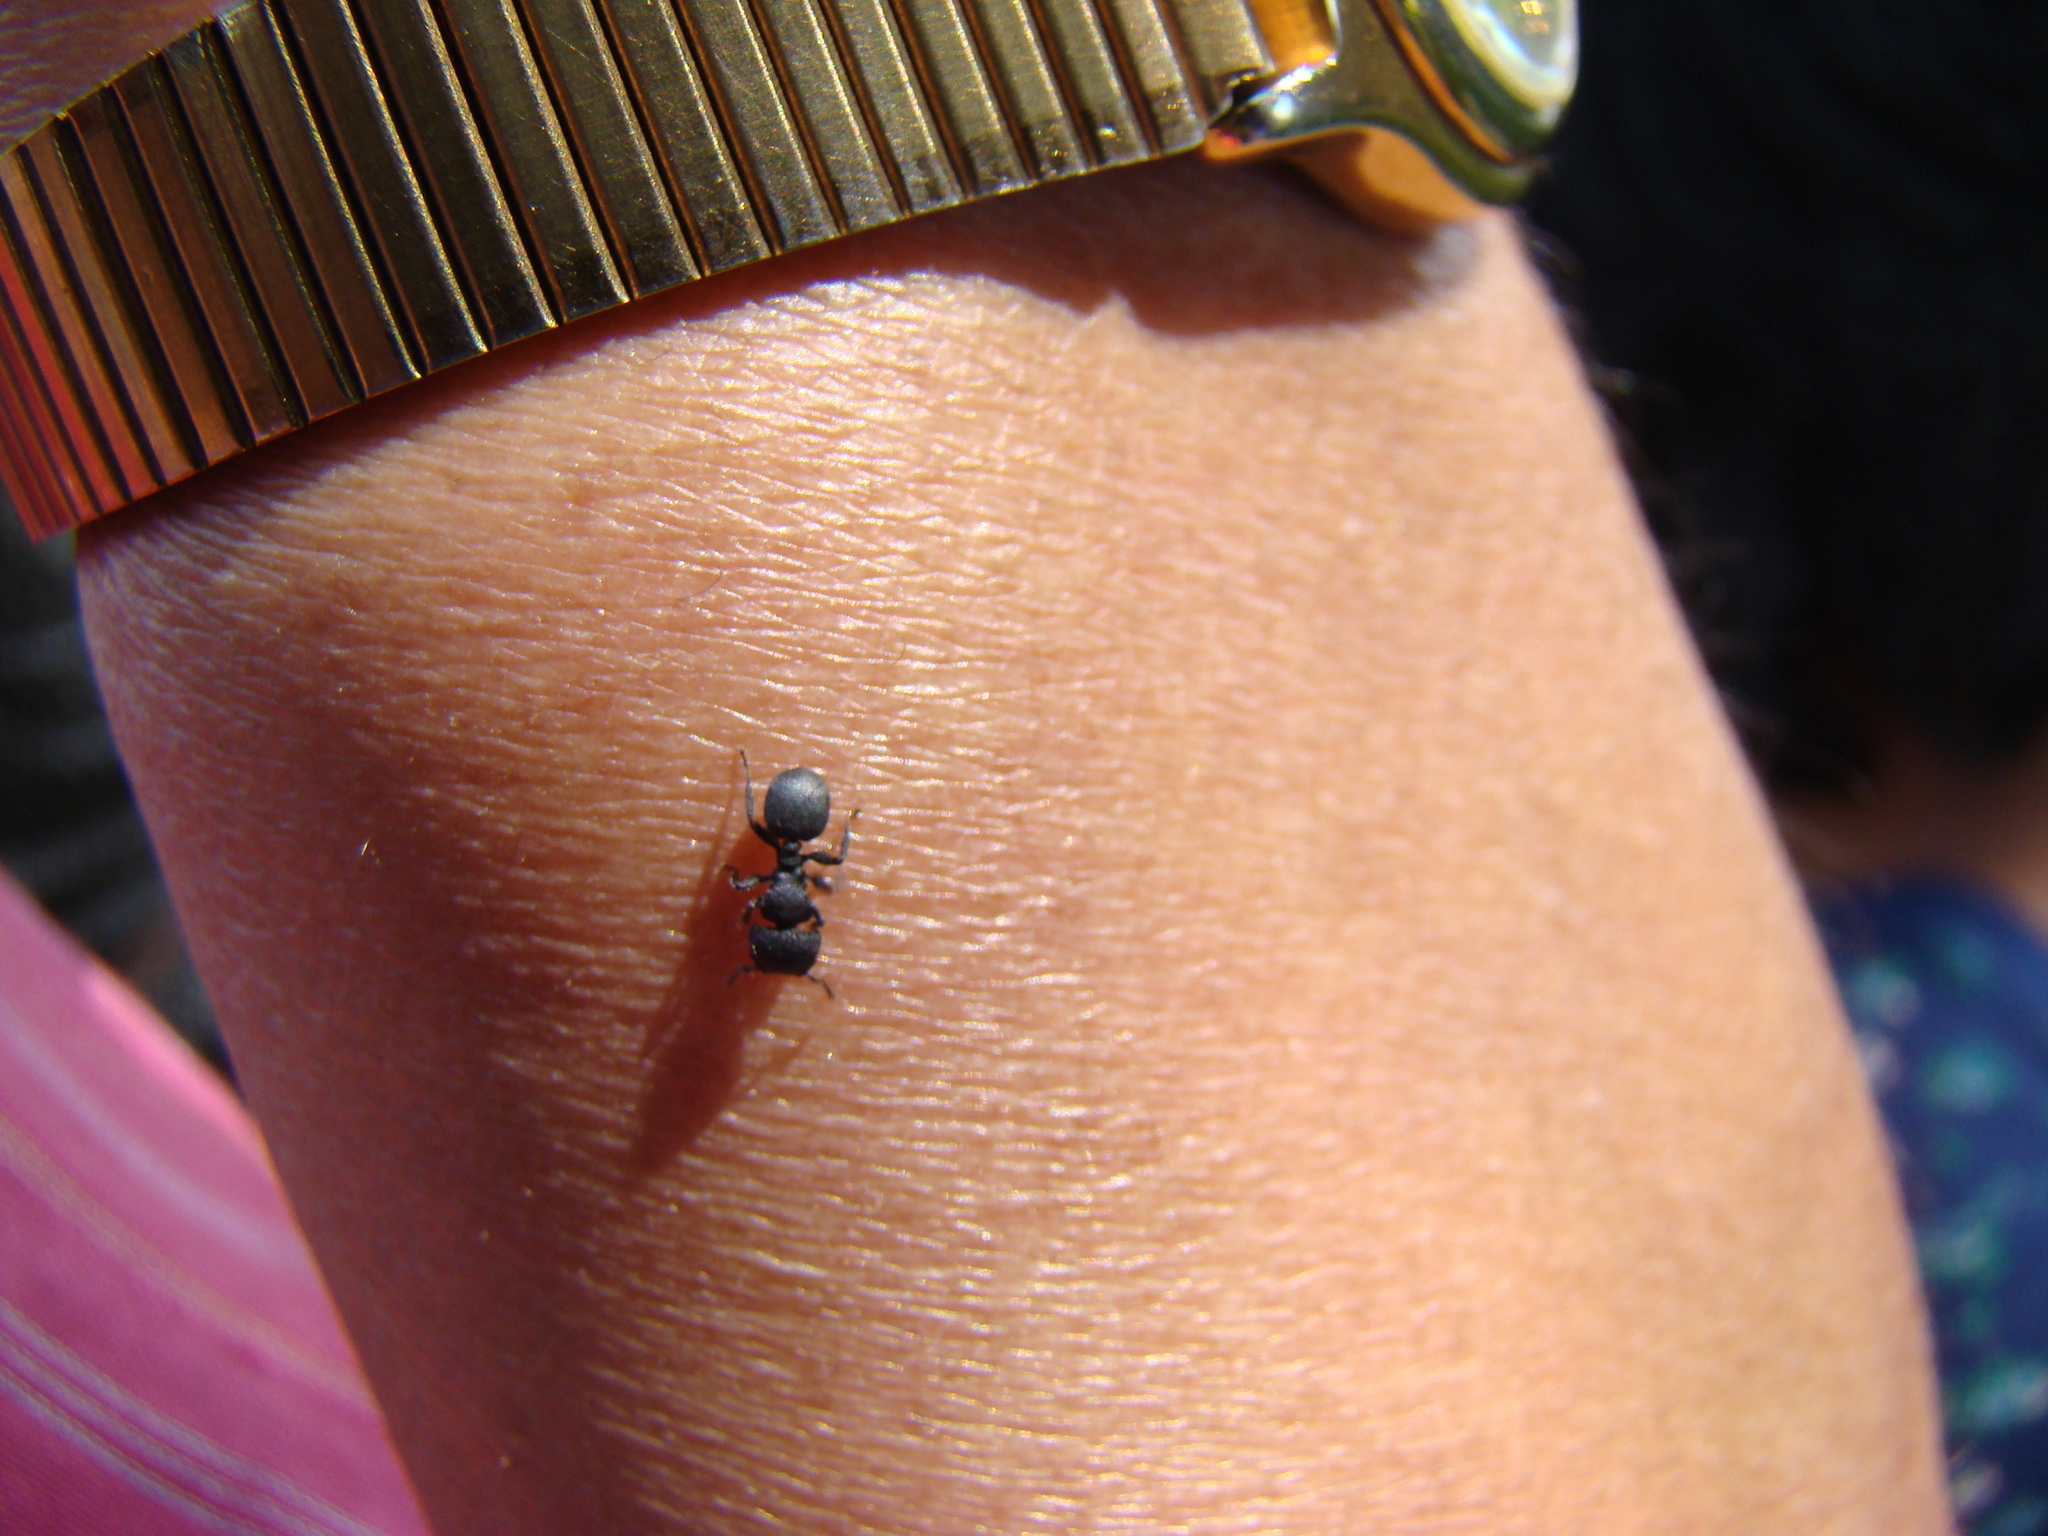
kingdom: Animalia
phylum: Arthropoda
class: Insecta
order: Hymenoptera
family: Formicidae
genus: Cataulacus
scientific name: Cataulacus latus
